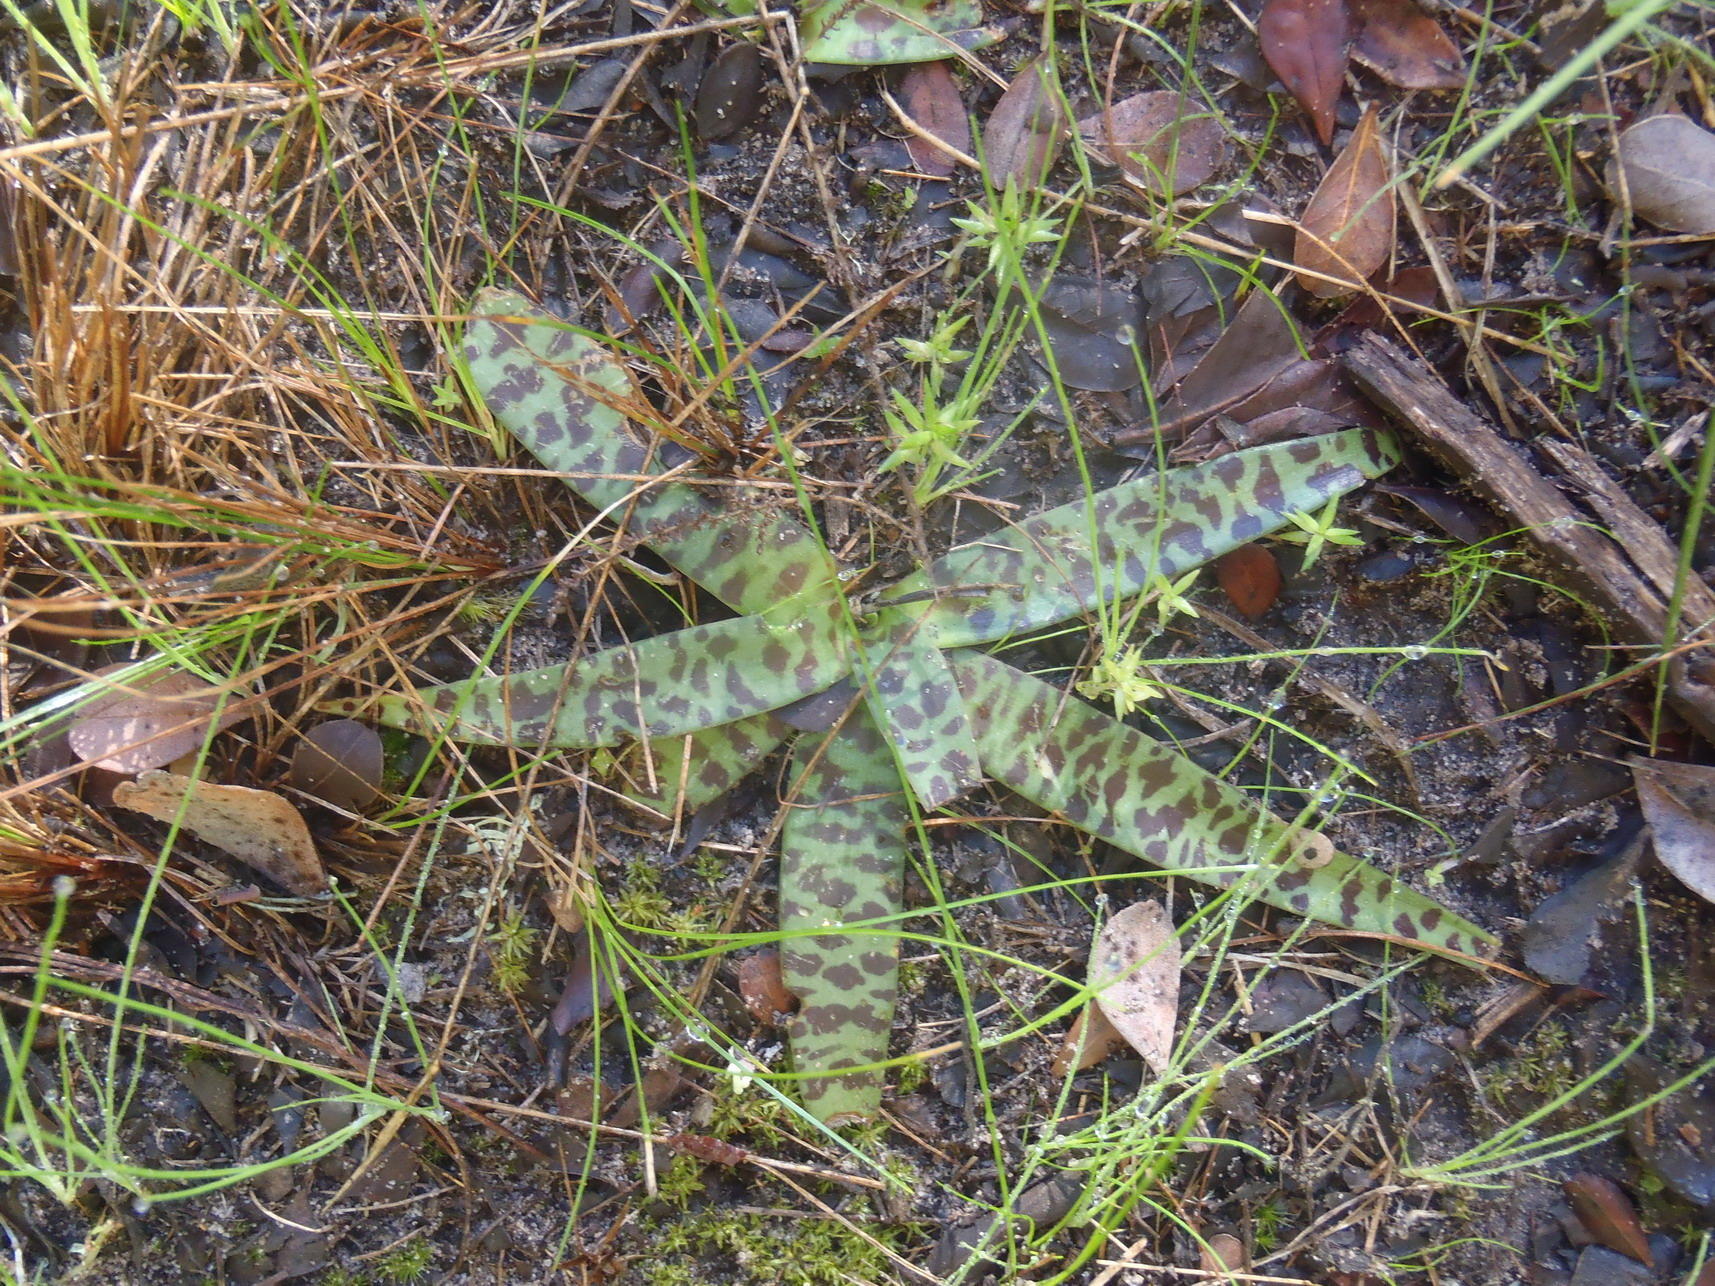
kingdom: Plantae
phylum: Tracheophyta
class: Liliopsida
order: Asparagales
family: Asparagaceae
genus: Ledebouria
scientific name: Ledebouria revoluta
